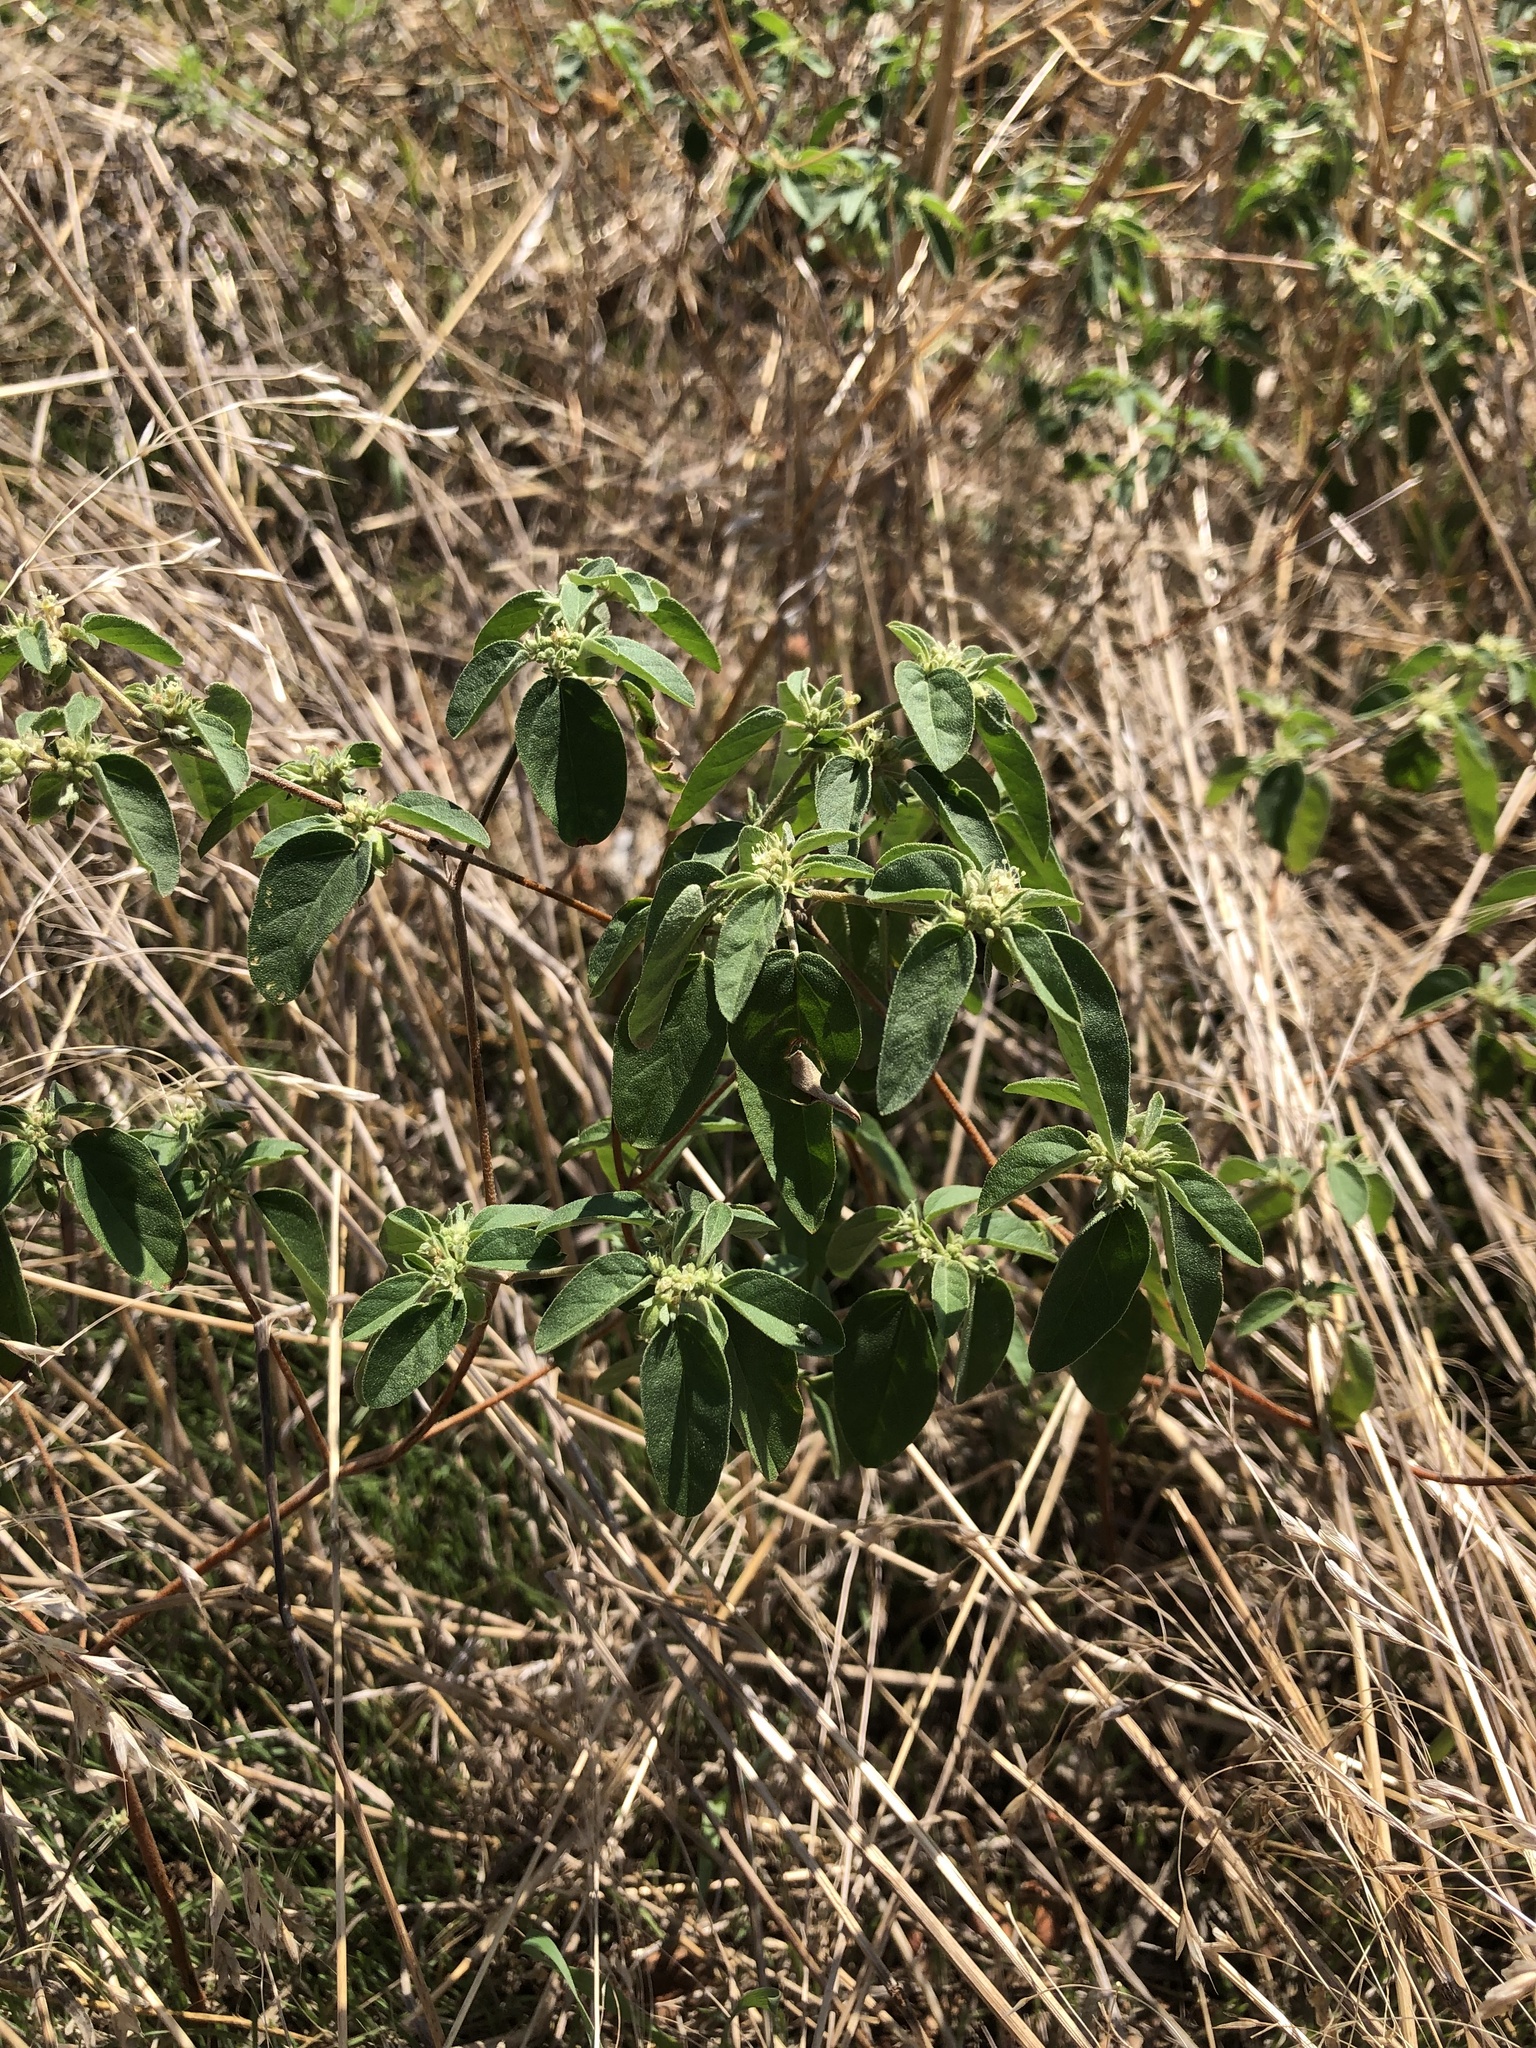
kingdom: Plantae
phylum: Tracheophyta
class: Magnoliopsida
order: Malpighiales
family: Euphorbiaceae
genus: Croton
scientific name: Croton monanthogynus
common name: One-seed croton
